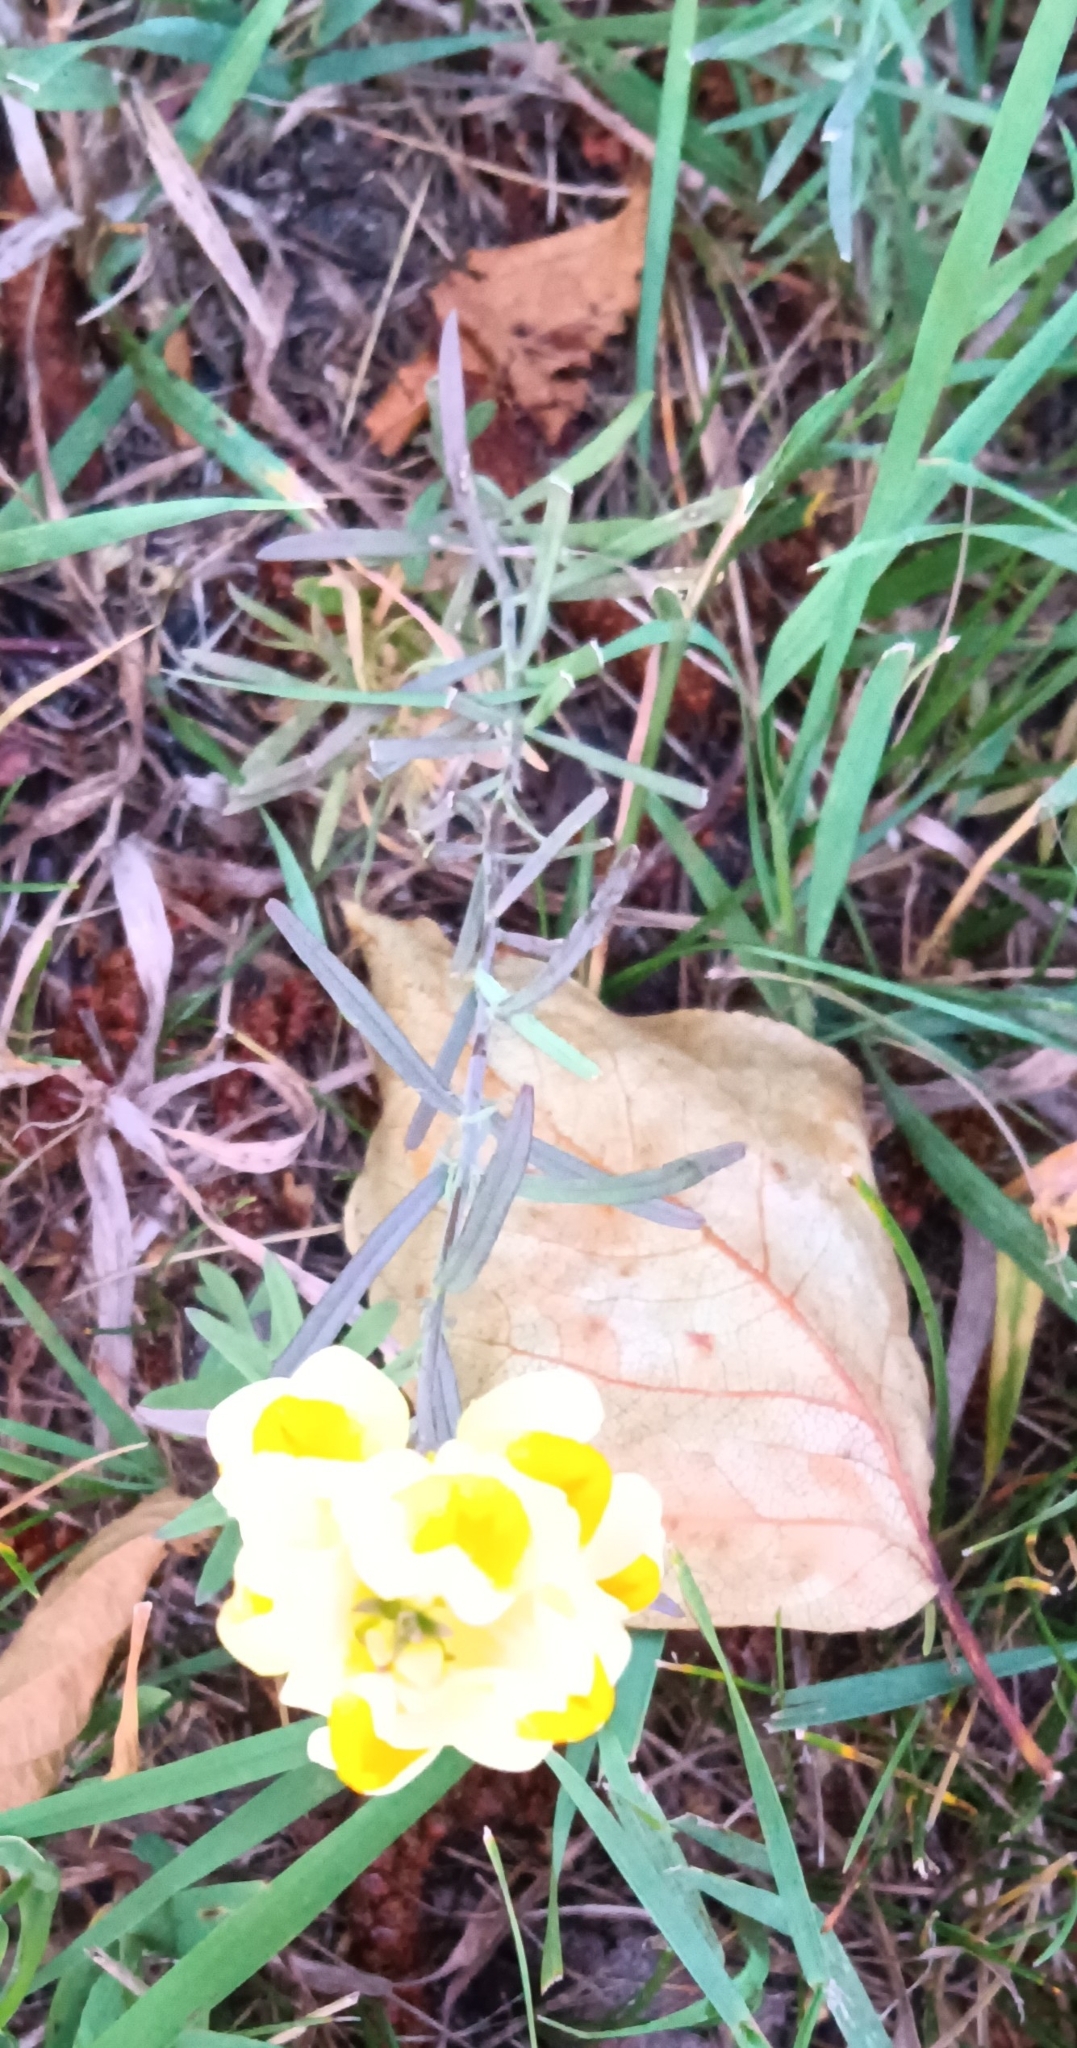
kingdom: Plantae
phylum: Tracheophyta
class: Magnoliopsida
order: Lamiales
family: Plantaginaceae
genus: Linaria
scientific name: Linaria vulgaris
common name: Butter and eggs
